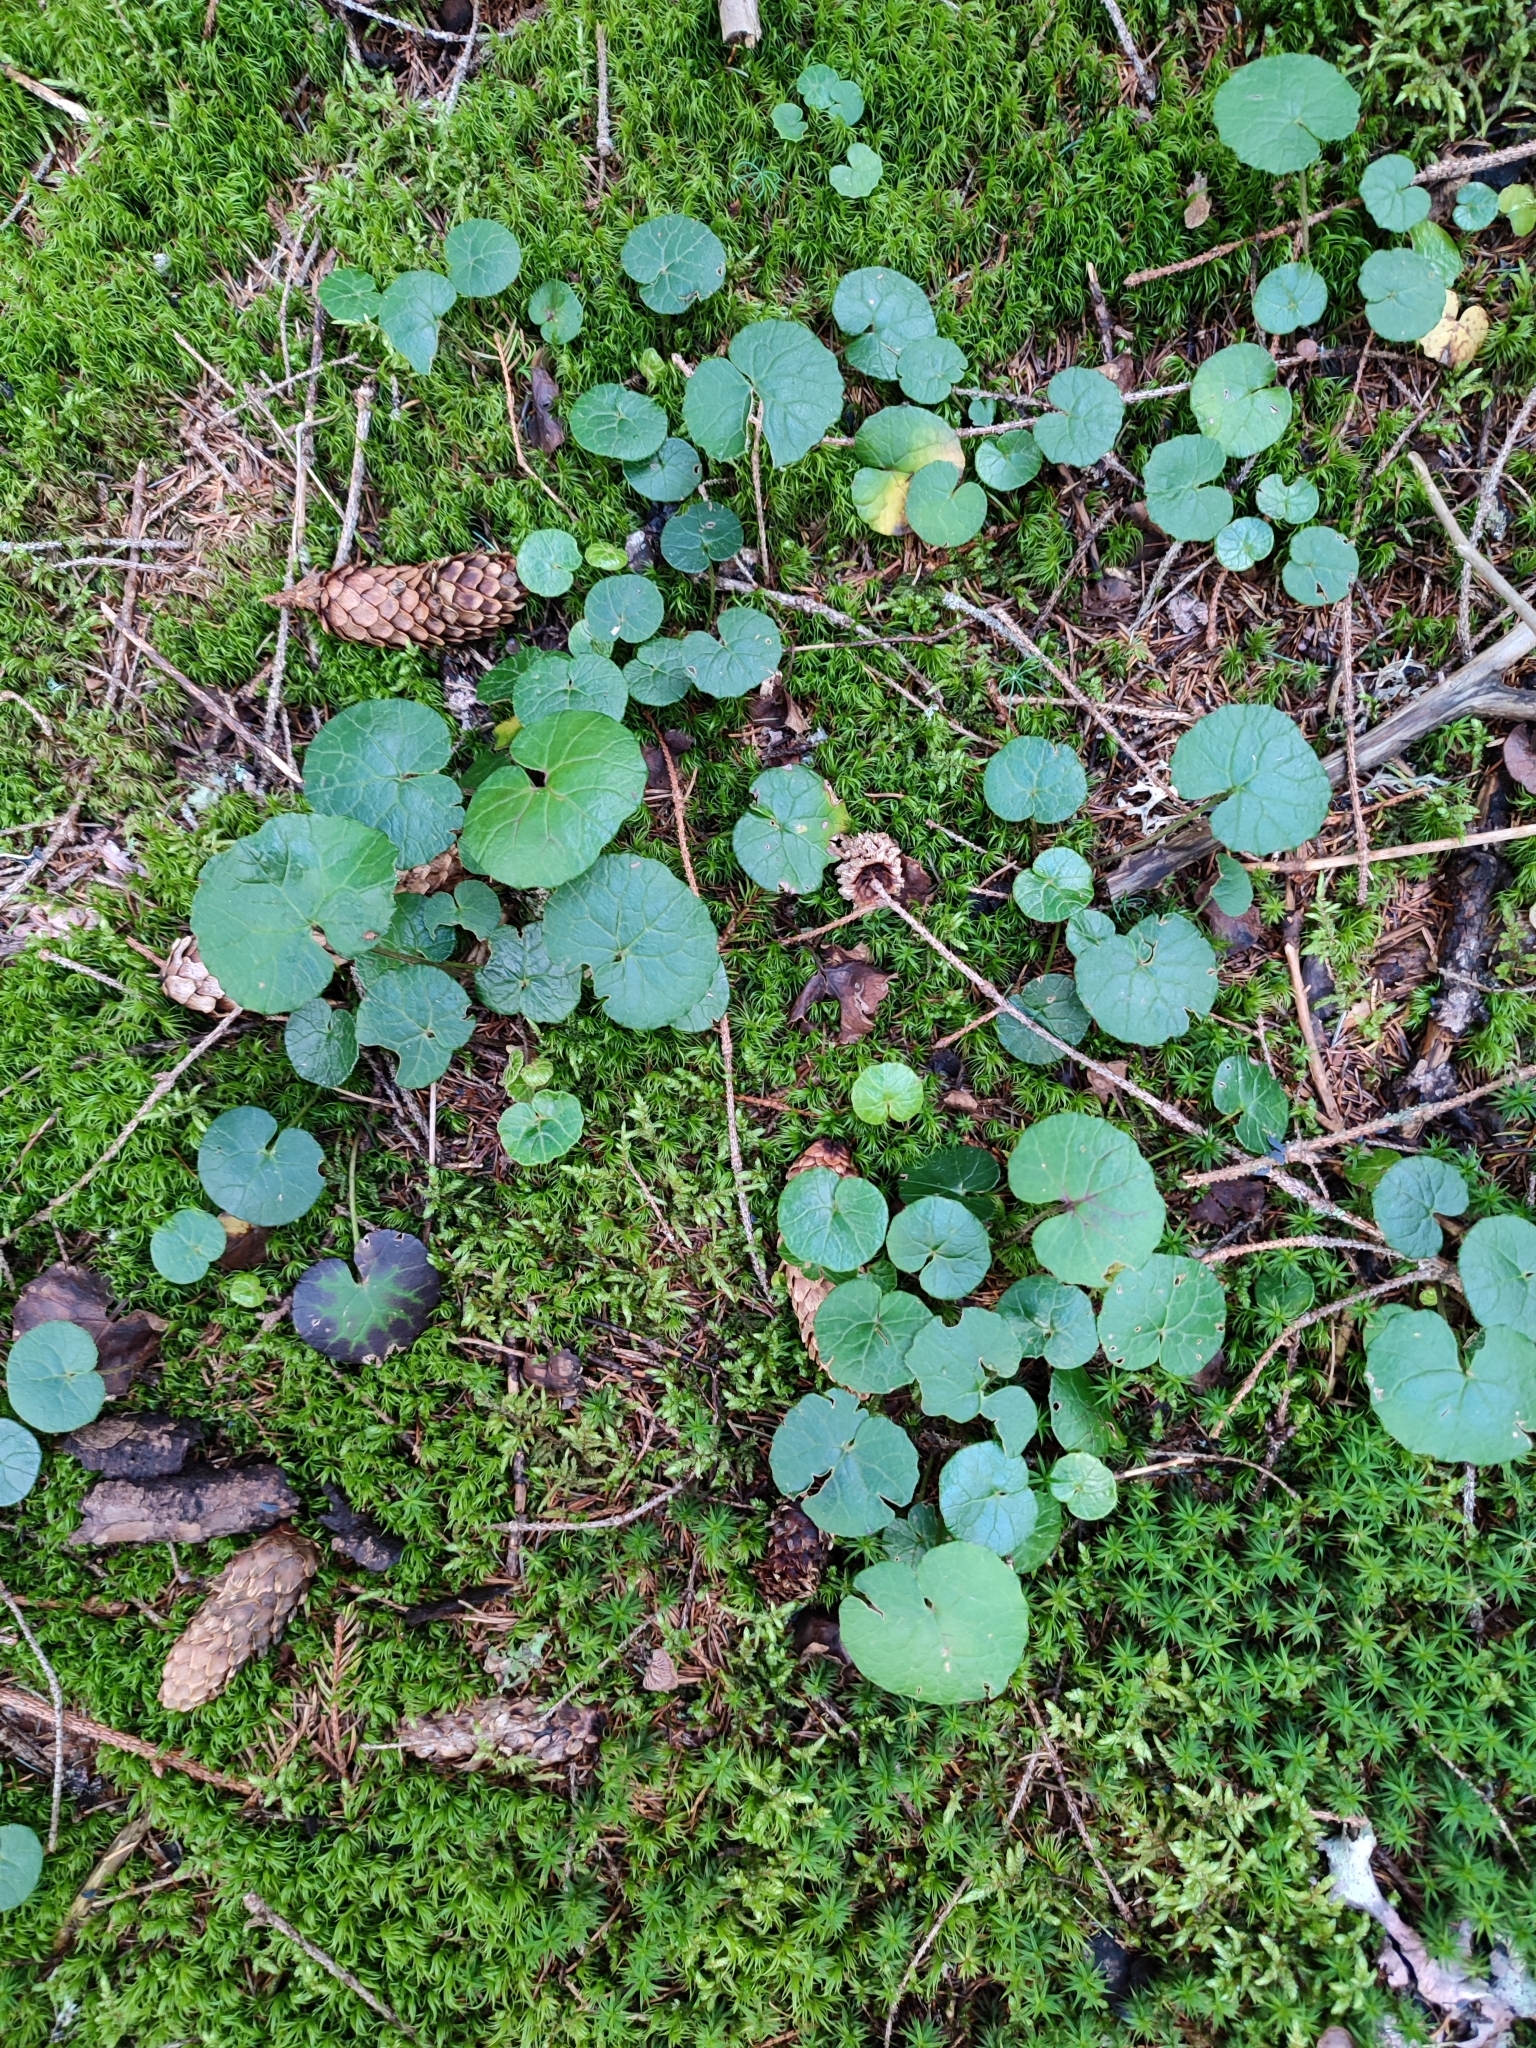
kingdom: Plantae
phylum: Tracheophyta
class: Magnoliopsida
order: Asterales
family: Asteraceae
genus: Homogyne
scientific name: Homogyne alpina
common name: Purple colt's-foot
